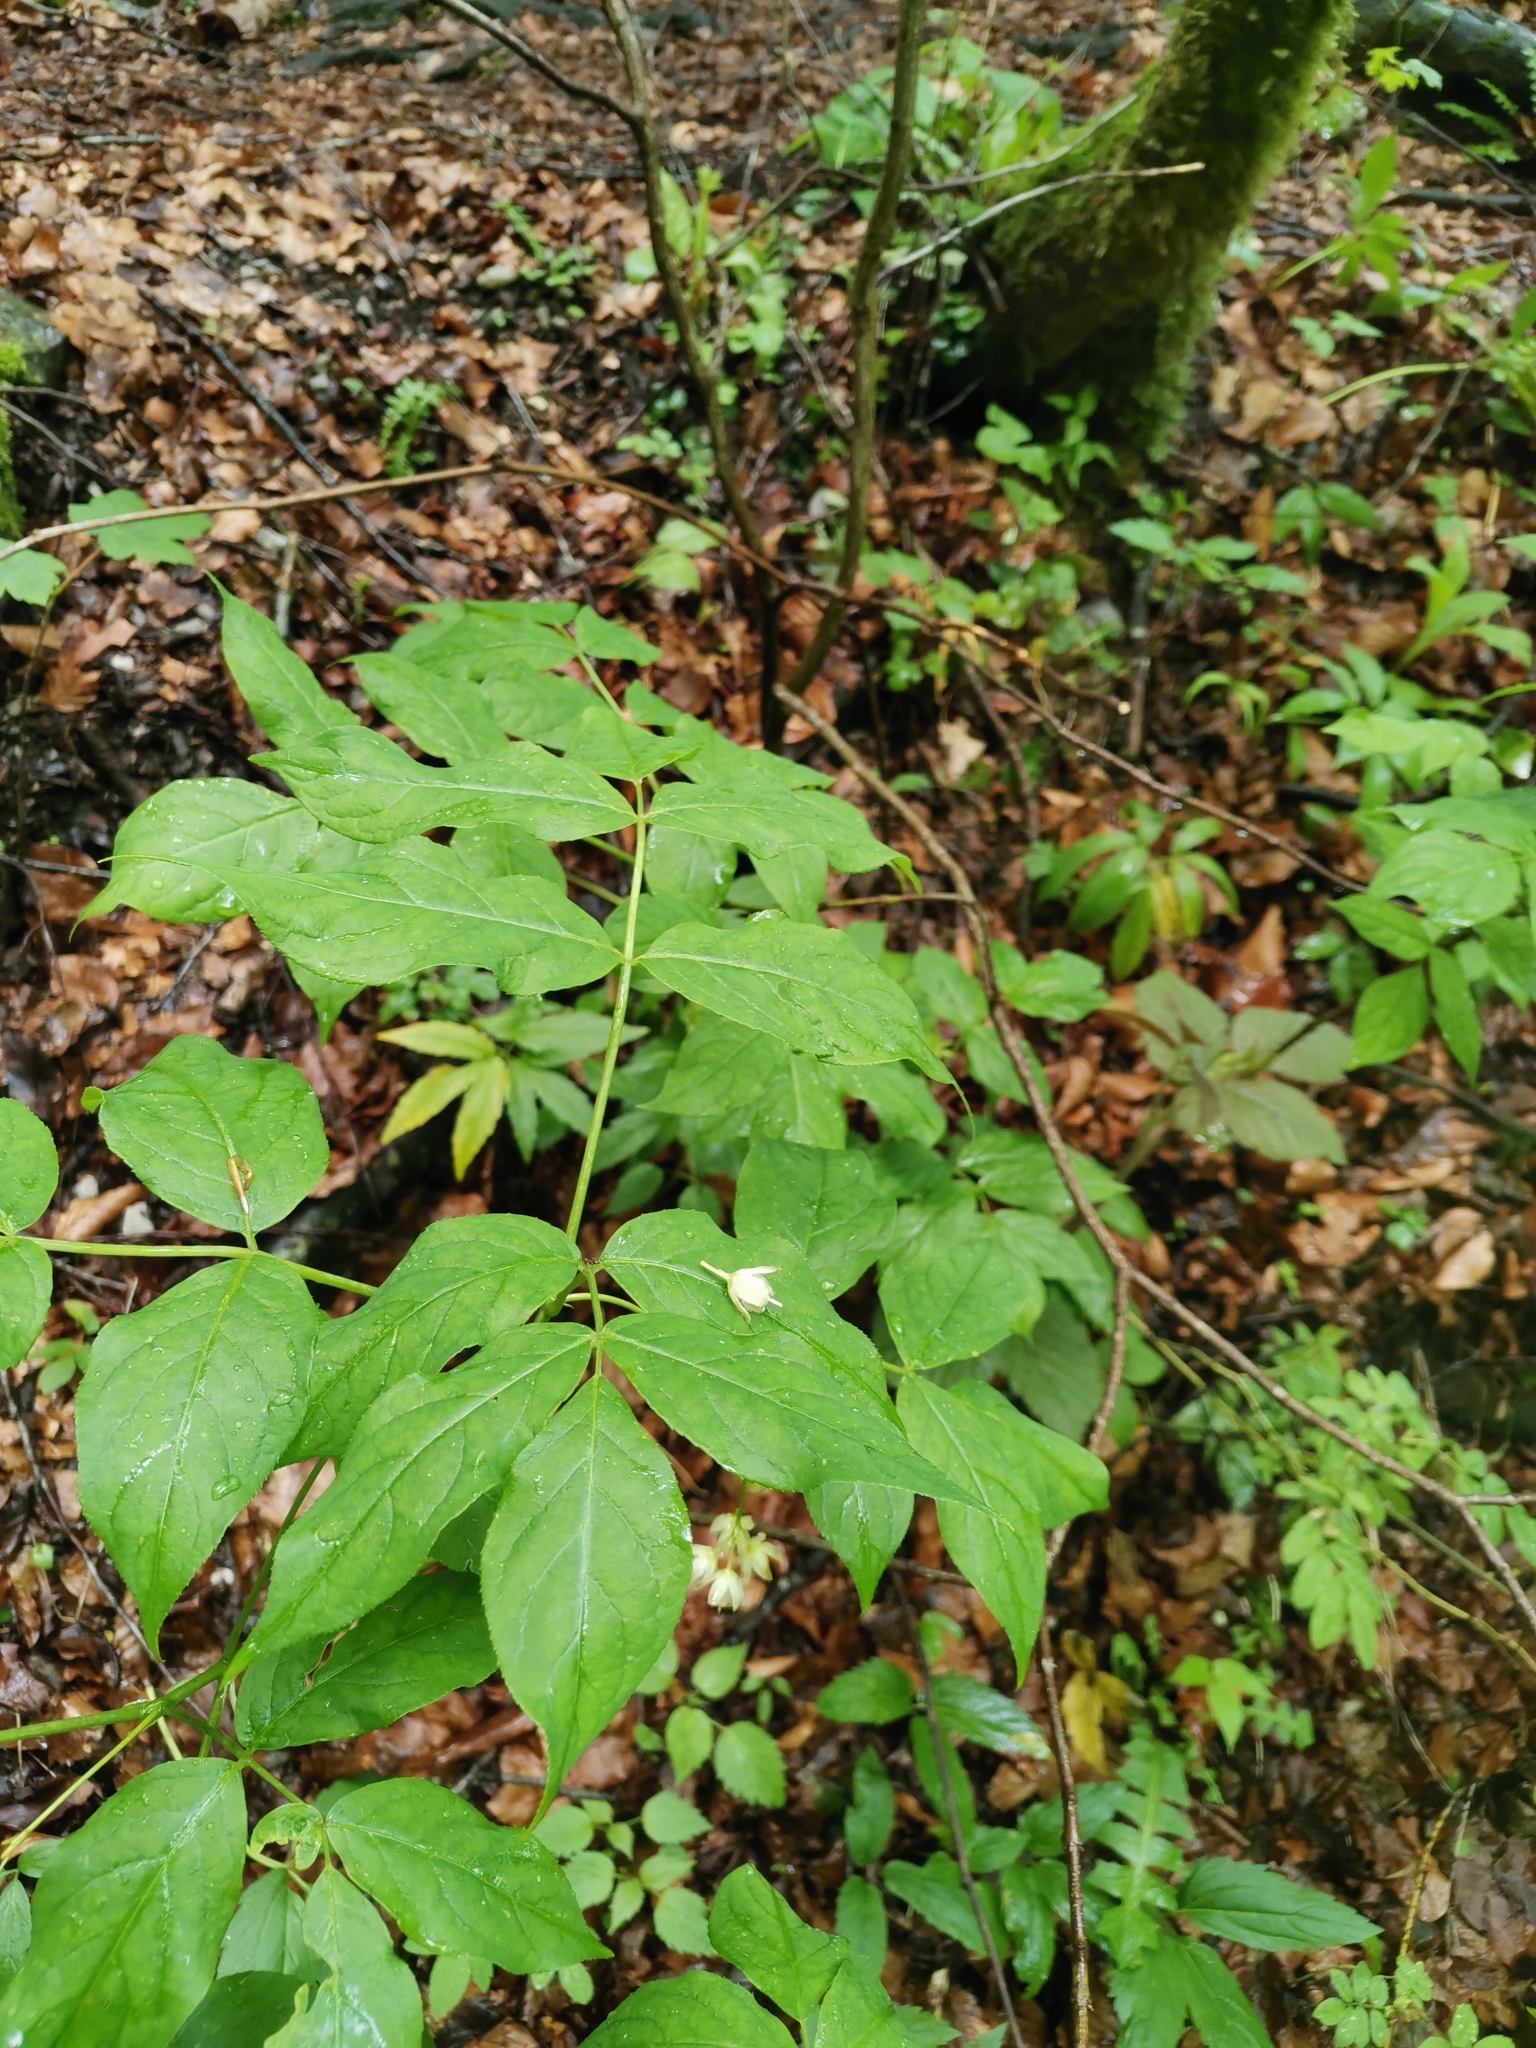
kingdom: Plantae
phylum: Tracheophyta
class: Magnoliopsida
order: Crossosomatales
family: Staphyleaceae
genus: Staphylea
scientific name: Staphylea pinnata
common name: Bladdernut
